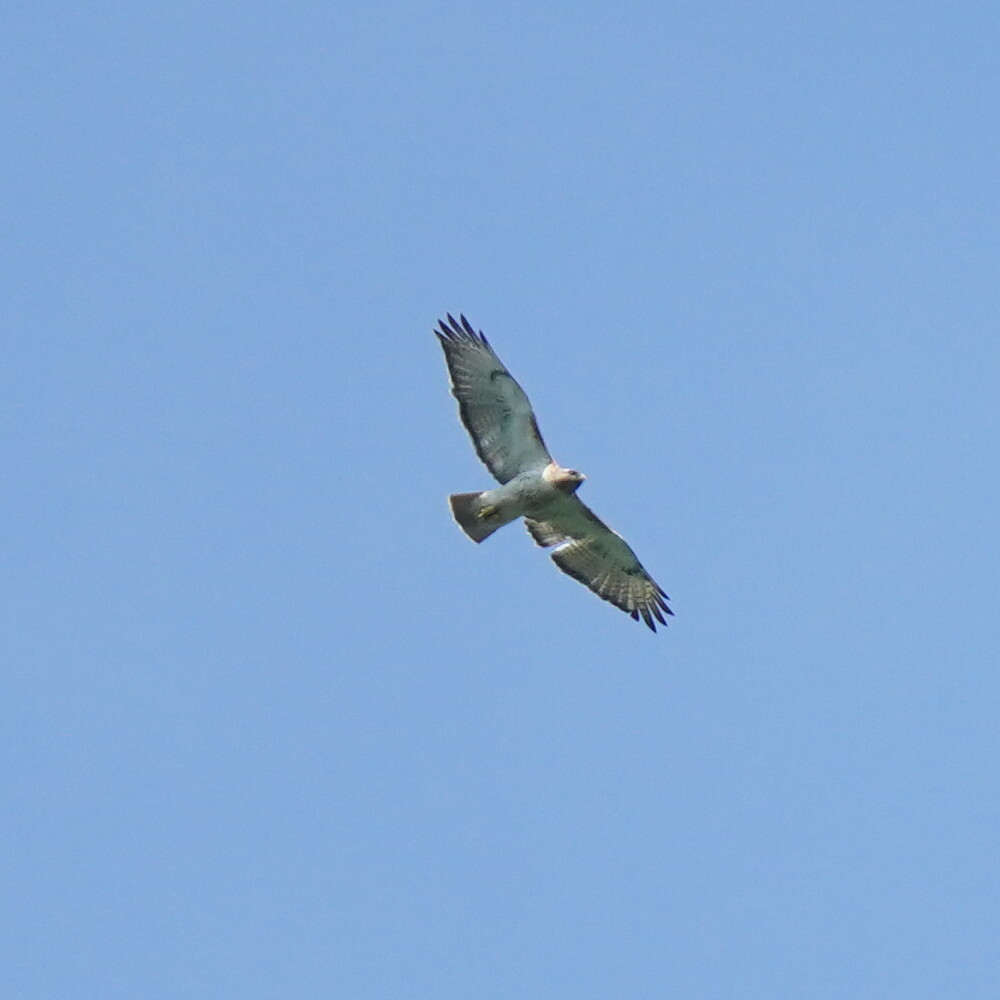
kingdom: Animalia
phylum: Chordata
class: Aves
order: Accipitriformes
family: Accipitridae
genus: Buteo
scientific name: Buteo jamaicensis
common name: Red-tailed hawk
